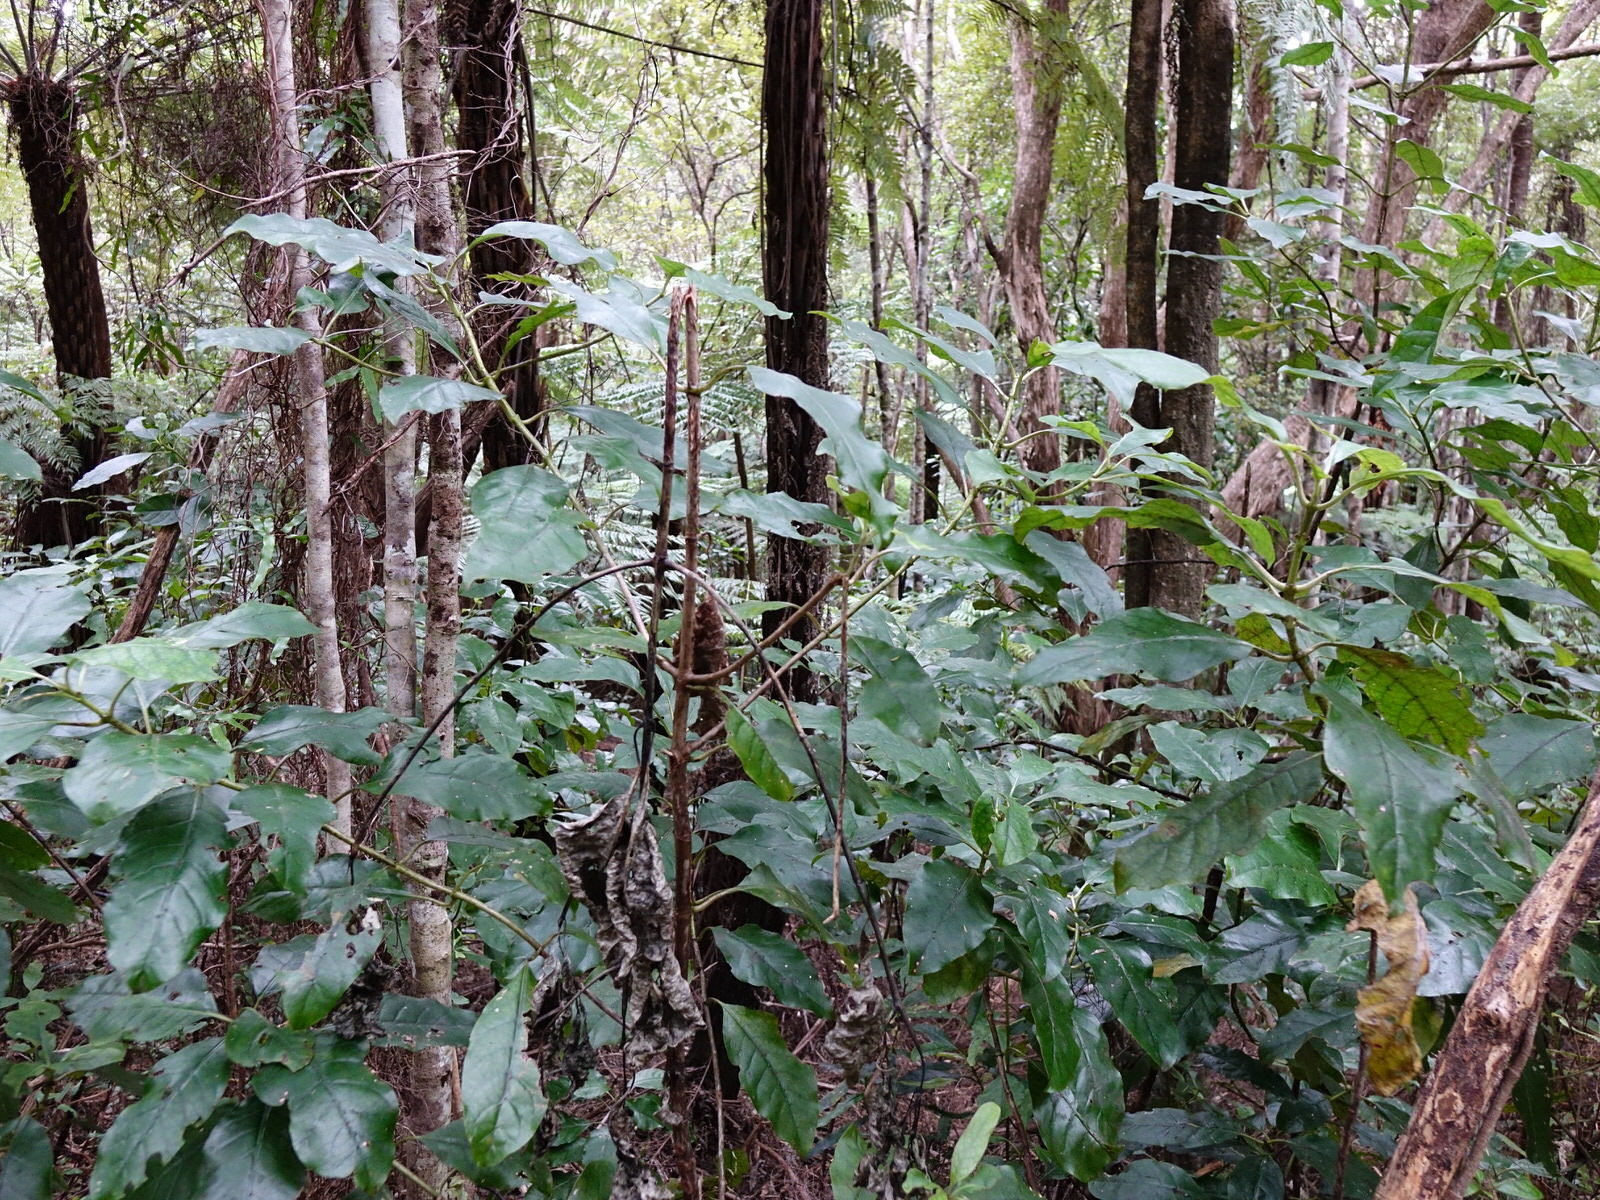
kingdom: Plantae
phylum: Tracheophyta
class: Magnoliopsida
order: Gentianales
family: Rubiaceae
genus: Coprosma
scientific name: Coprosma autumnalis
